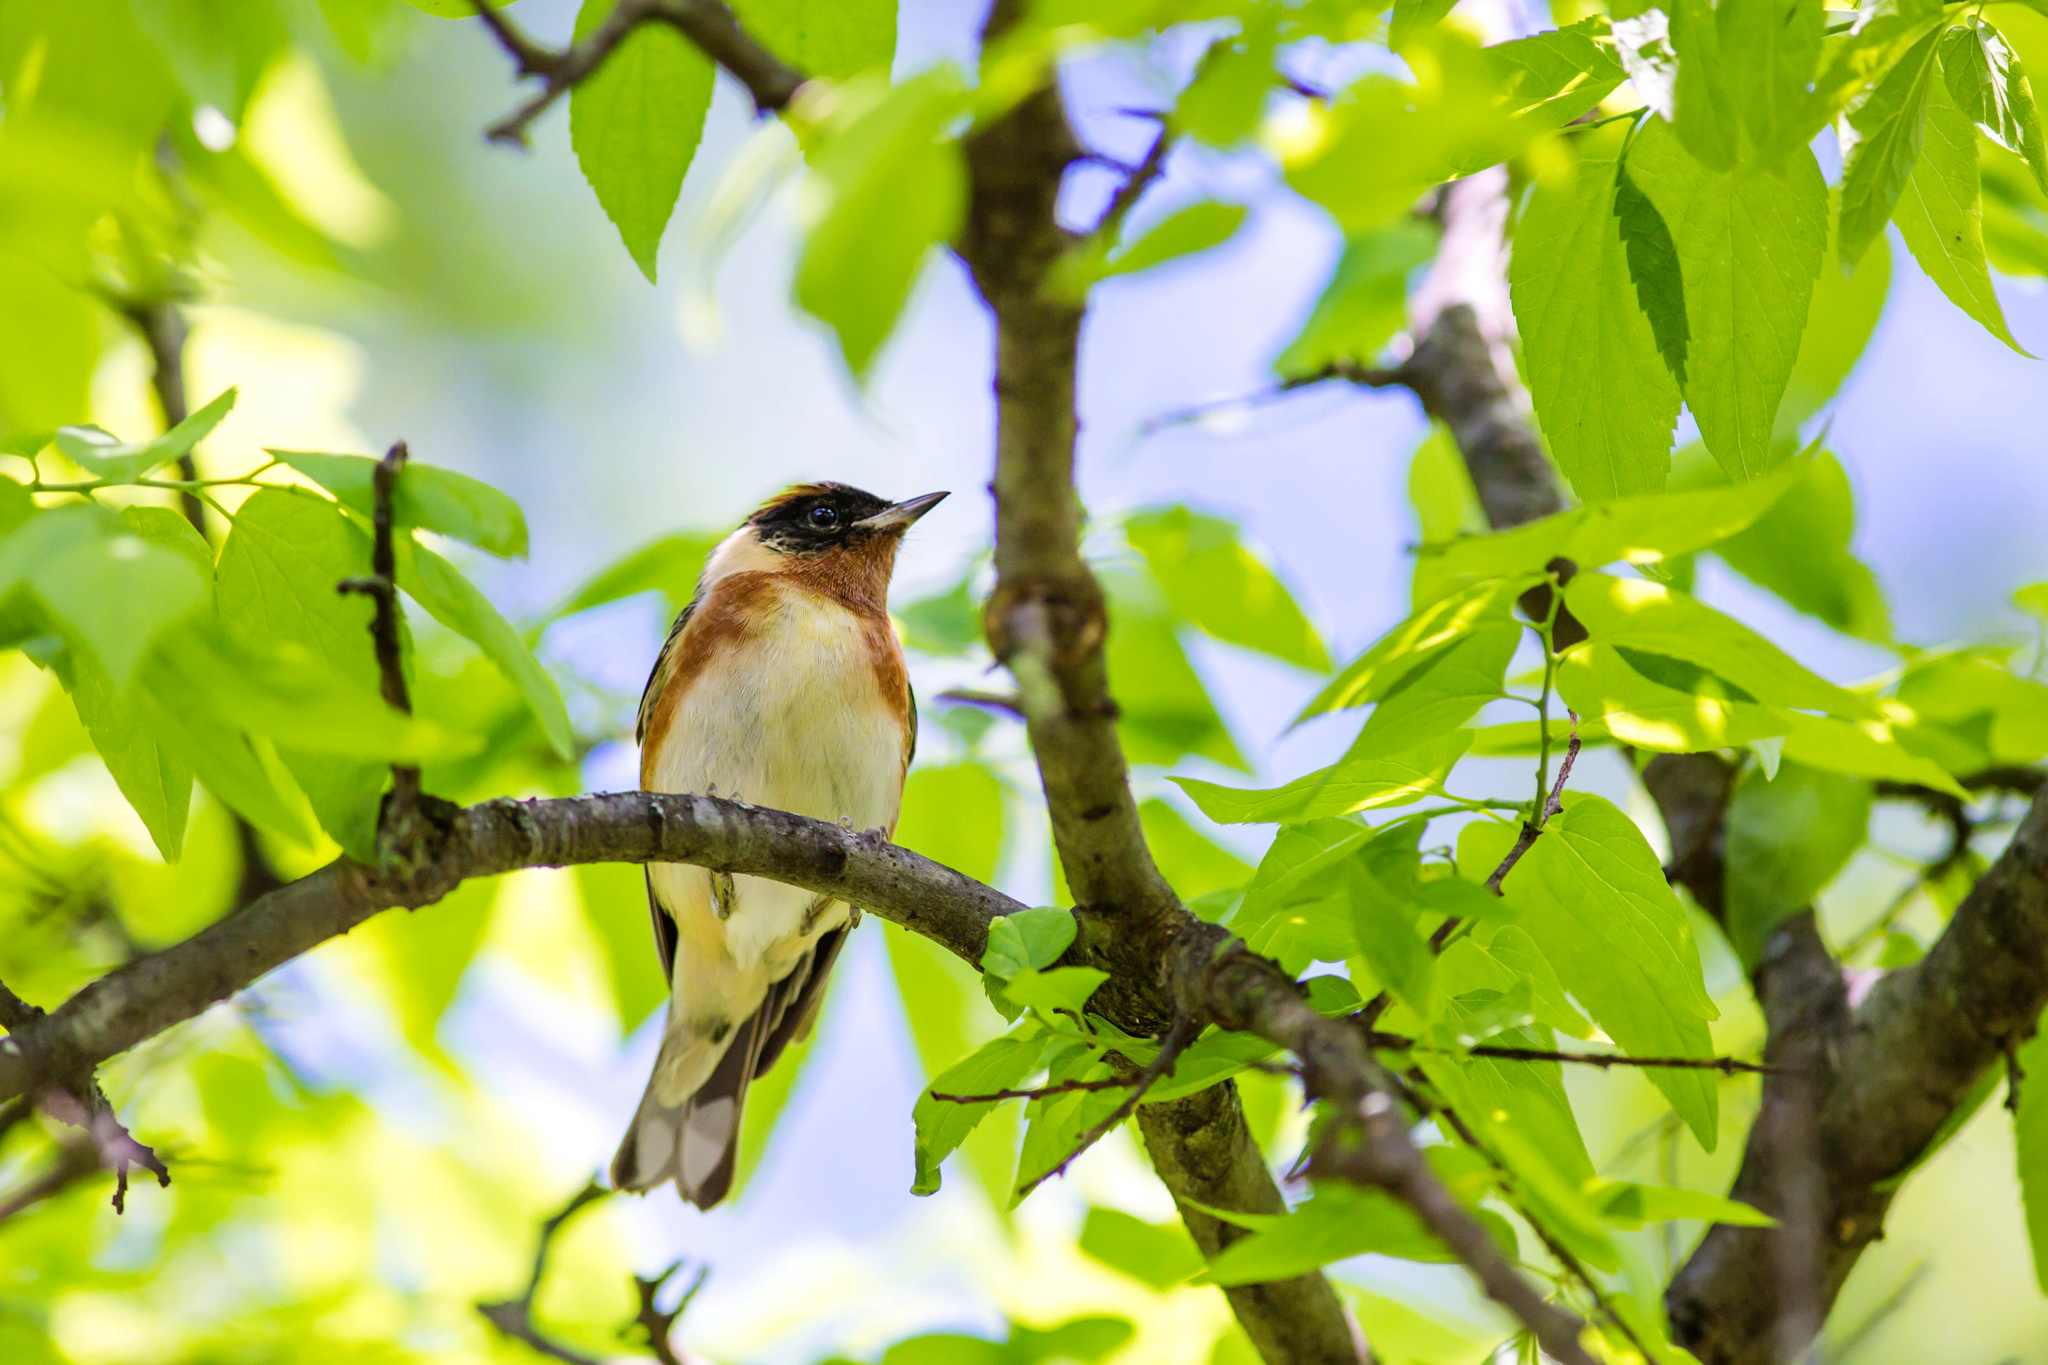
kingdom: Animalia
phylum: Chordata
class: Aves
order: Passeriformes
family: Parulidae
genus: Setophaga
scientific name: Setophaga castanea
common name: Bay-breasted warbler
